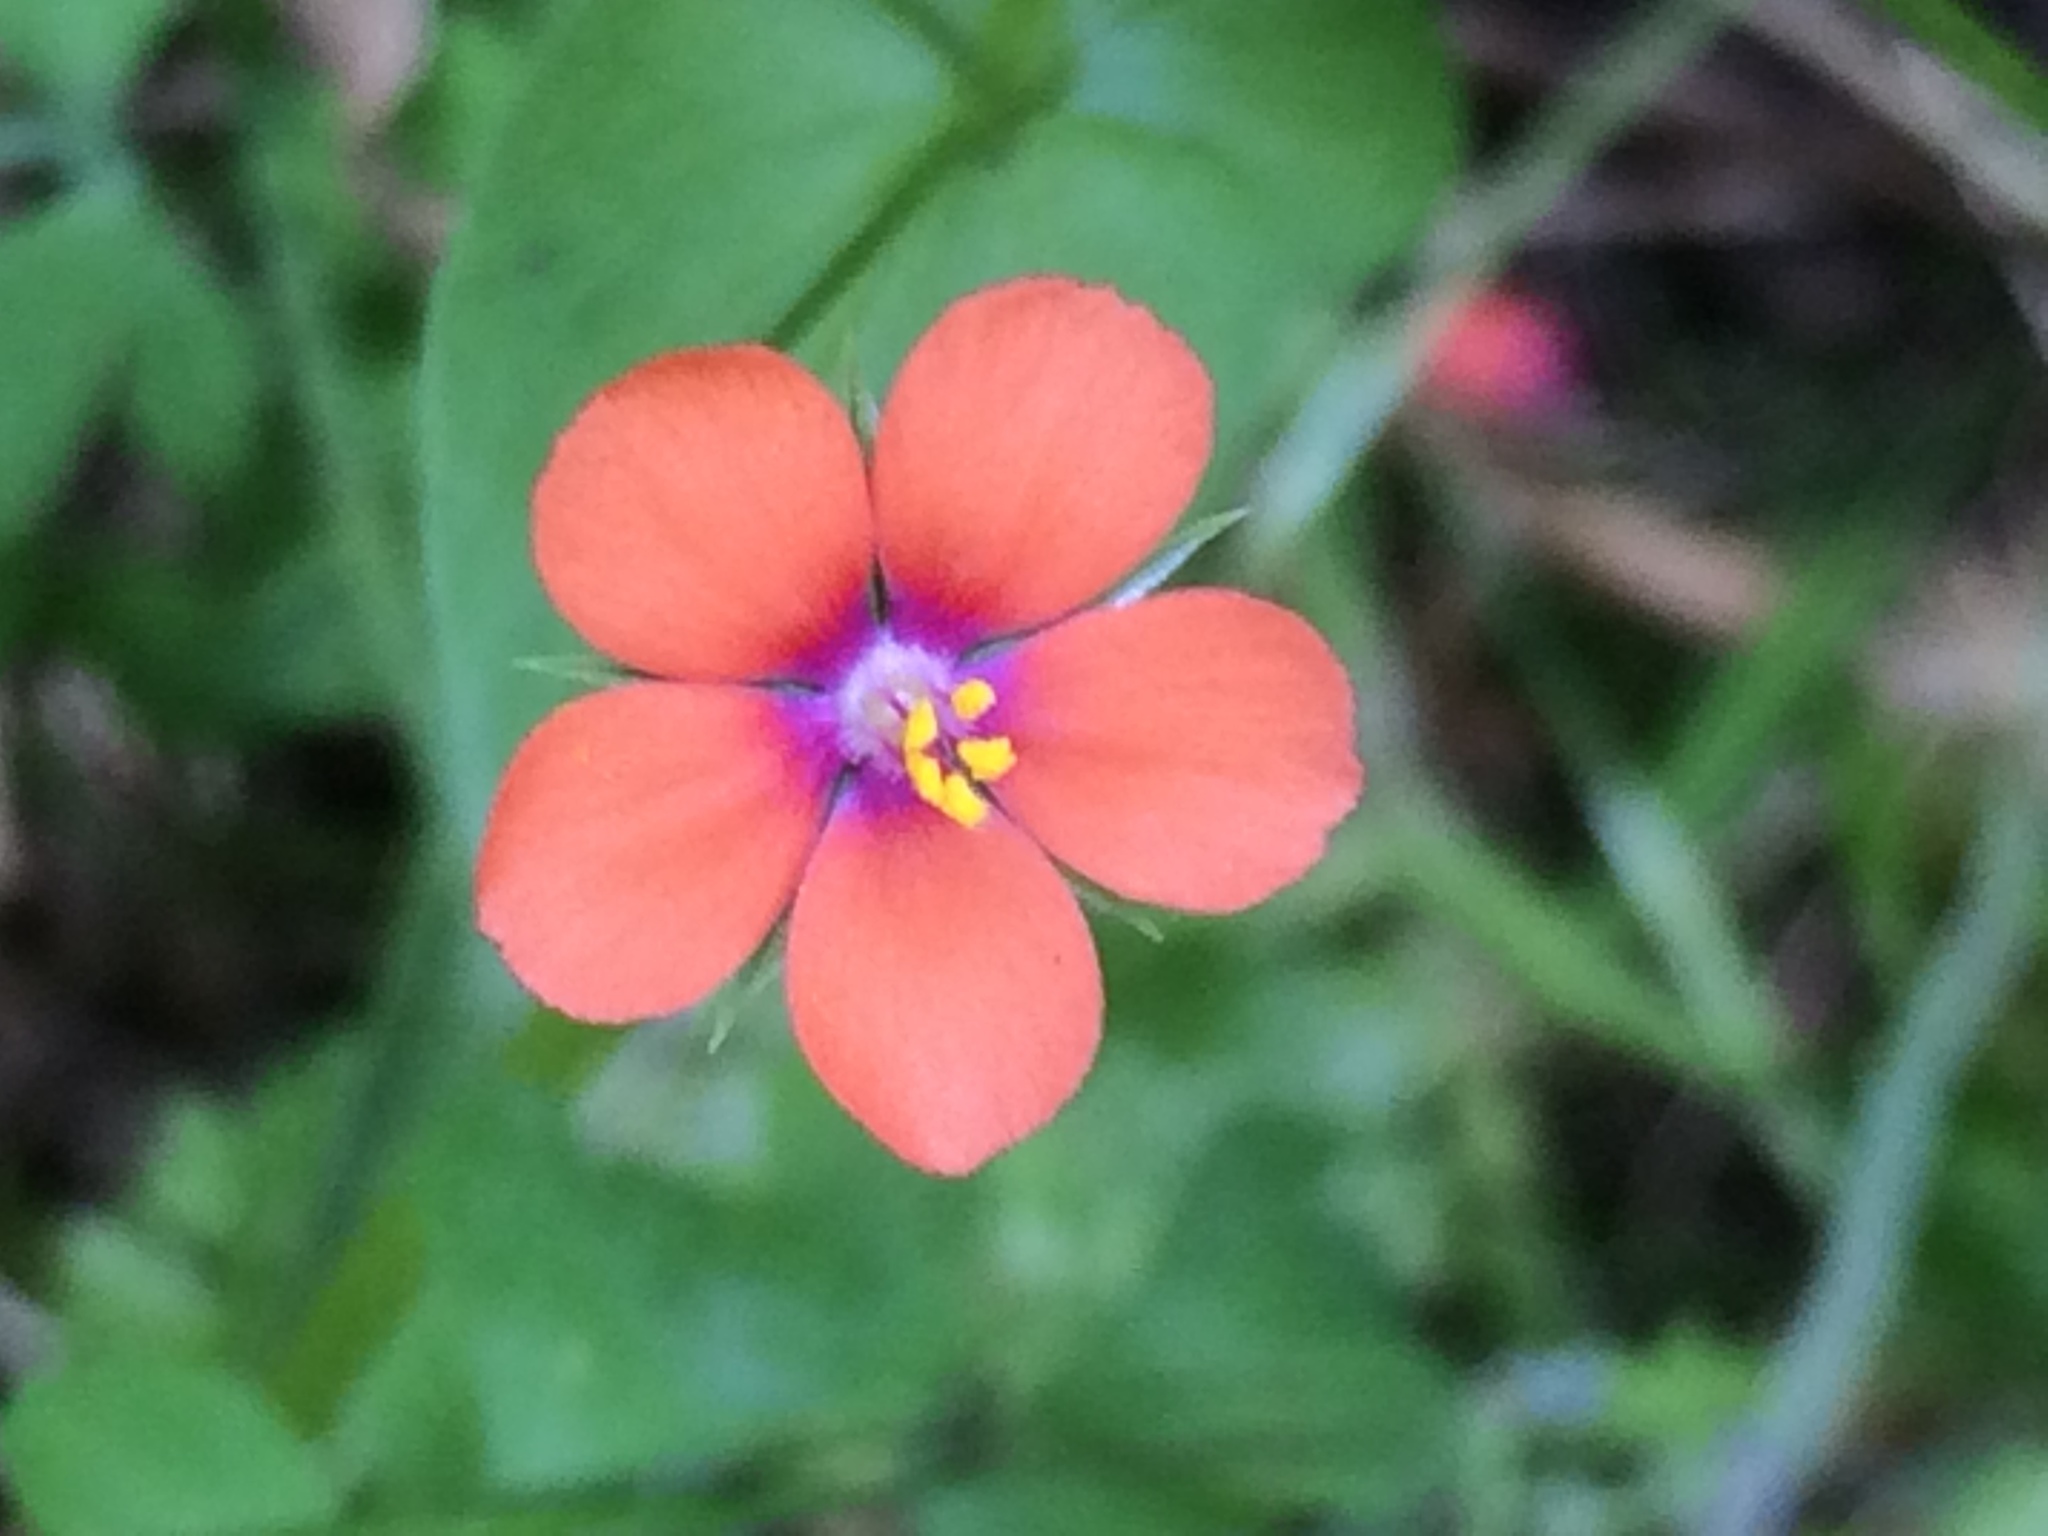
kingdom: Plantae
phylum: Tracheophyta
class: Magnoliopsida
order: Ericales
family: Primulaceae
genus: Lysimachia
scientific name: Lysimachia arvensis
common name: Scarlet pimpernel
